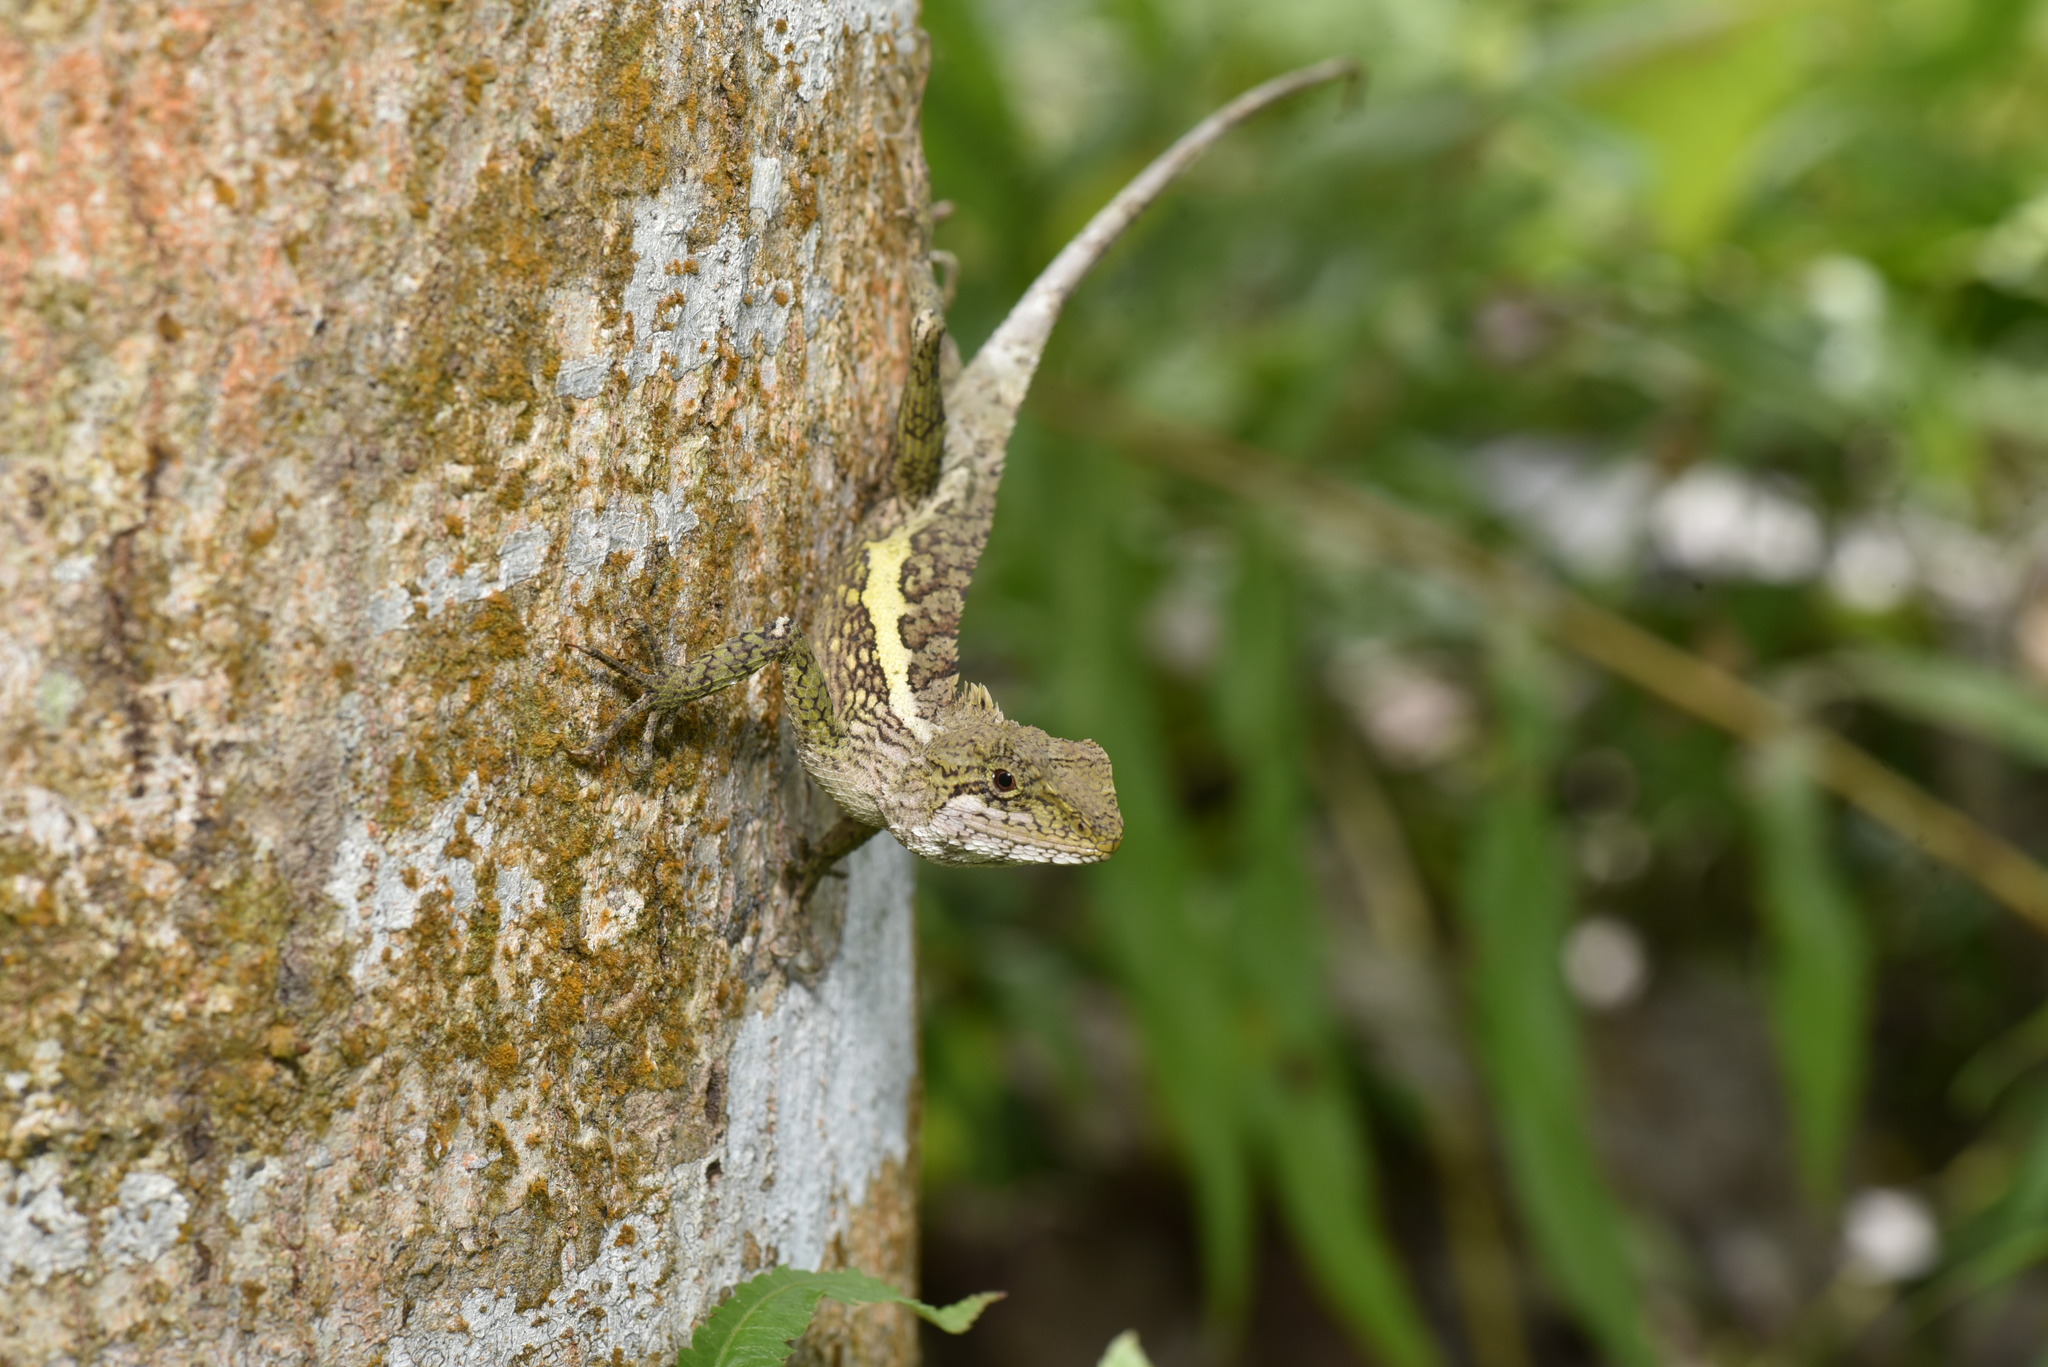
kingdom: Animalia
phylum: Chordata
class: Squamata
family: Agamidae
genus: Diploderma
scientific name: Diploderma swinhonis
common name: Taiwan japalure
